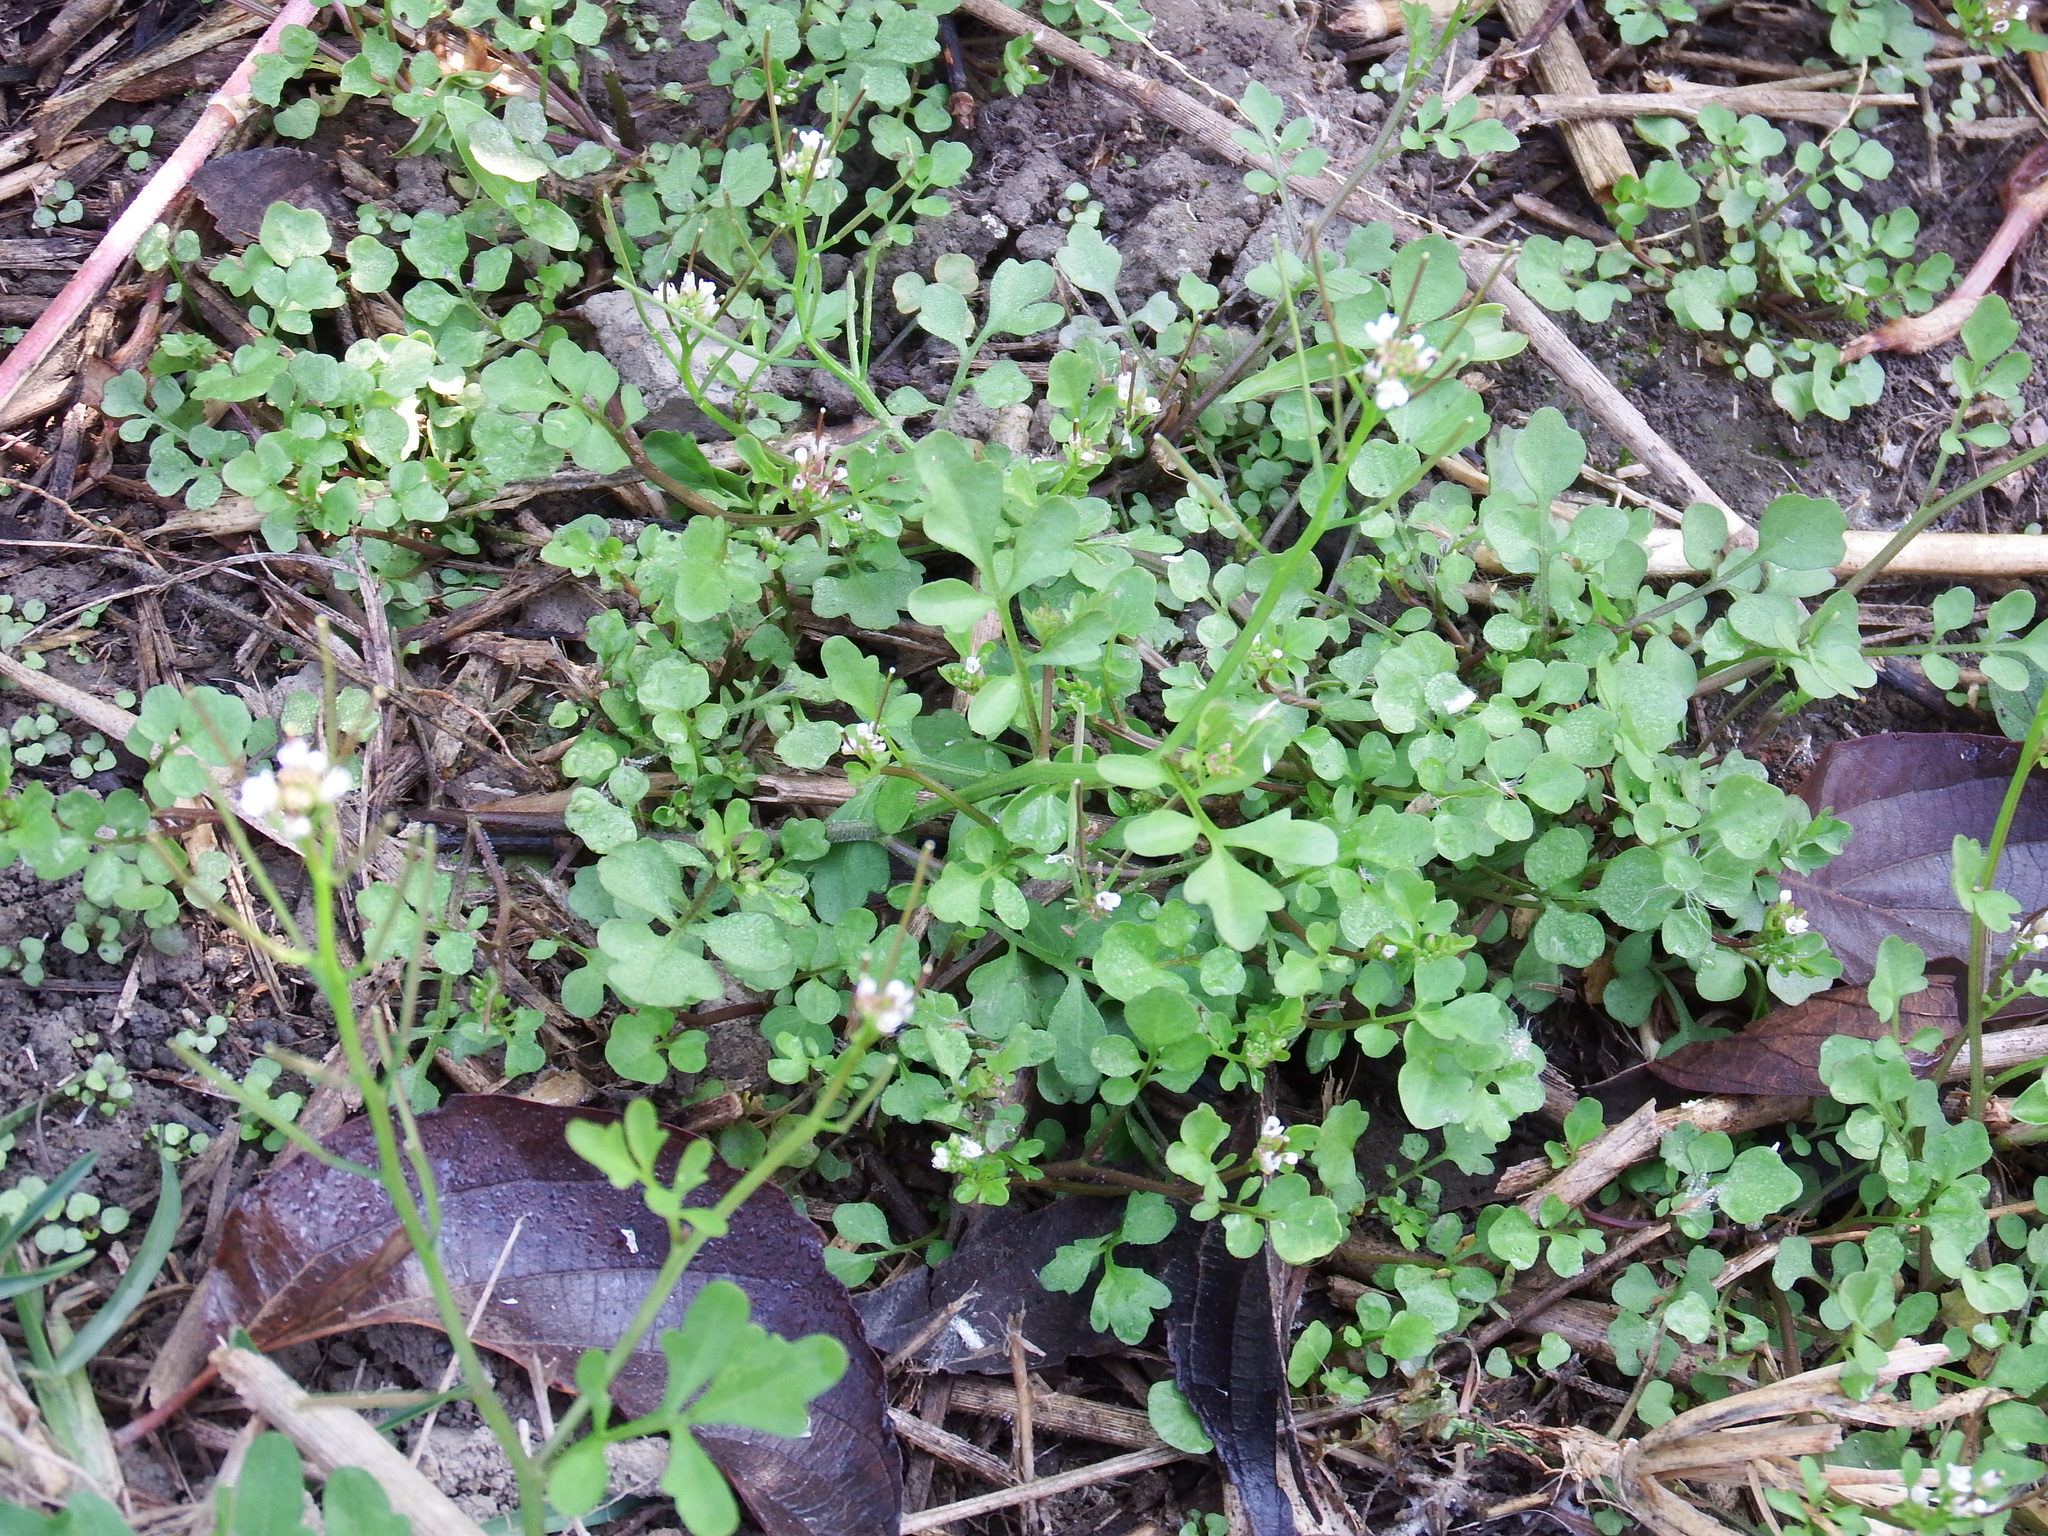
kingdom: Plantae
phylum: Tracheophyta
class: Magnoliopsida
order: Brassicales
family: Brassicaceae
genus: Cardamine
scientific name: Cardamine flexuosa
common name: Woodland bittercress
